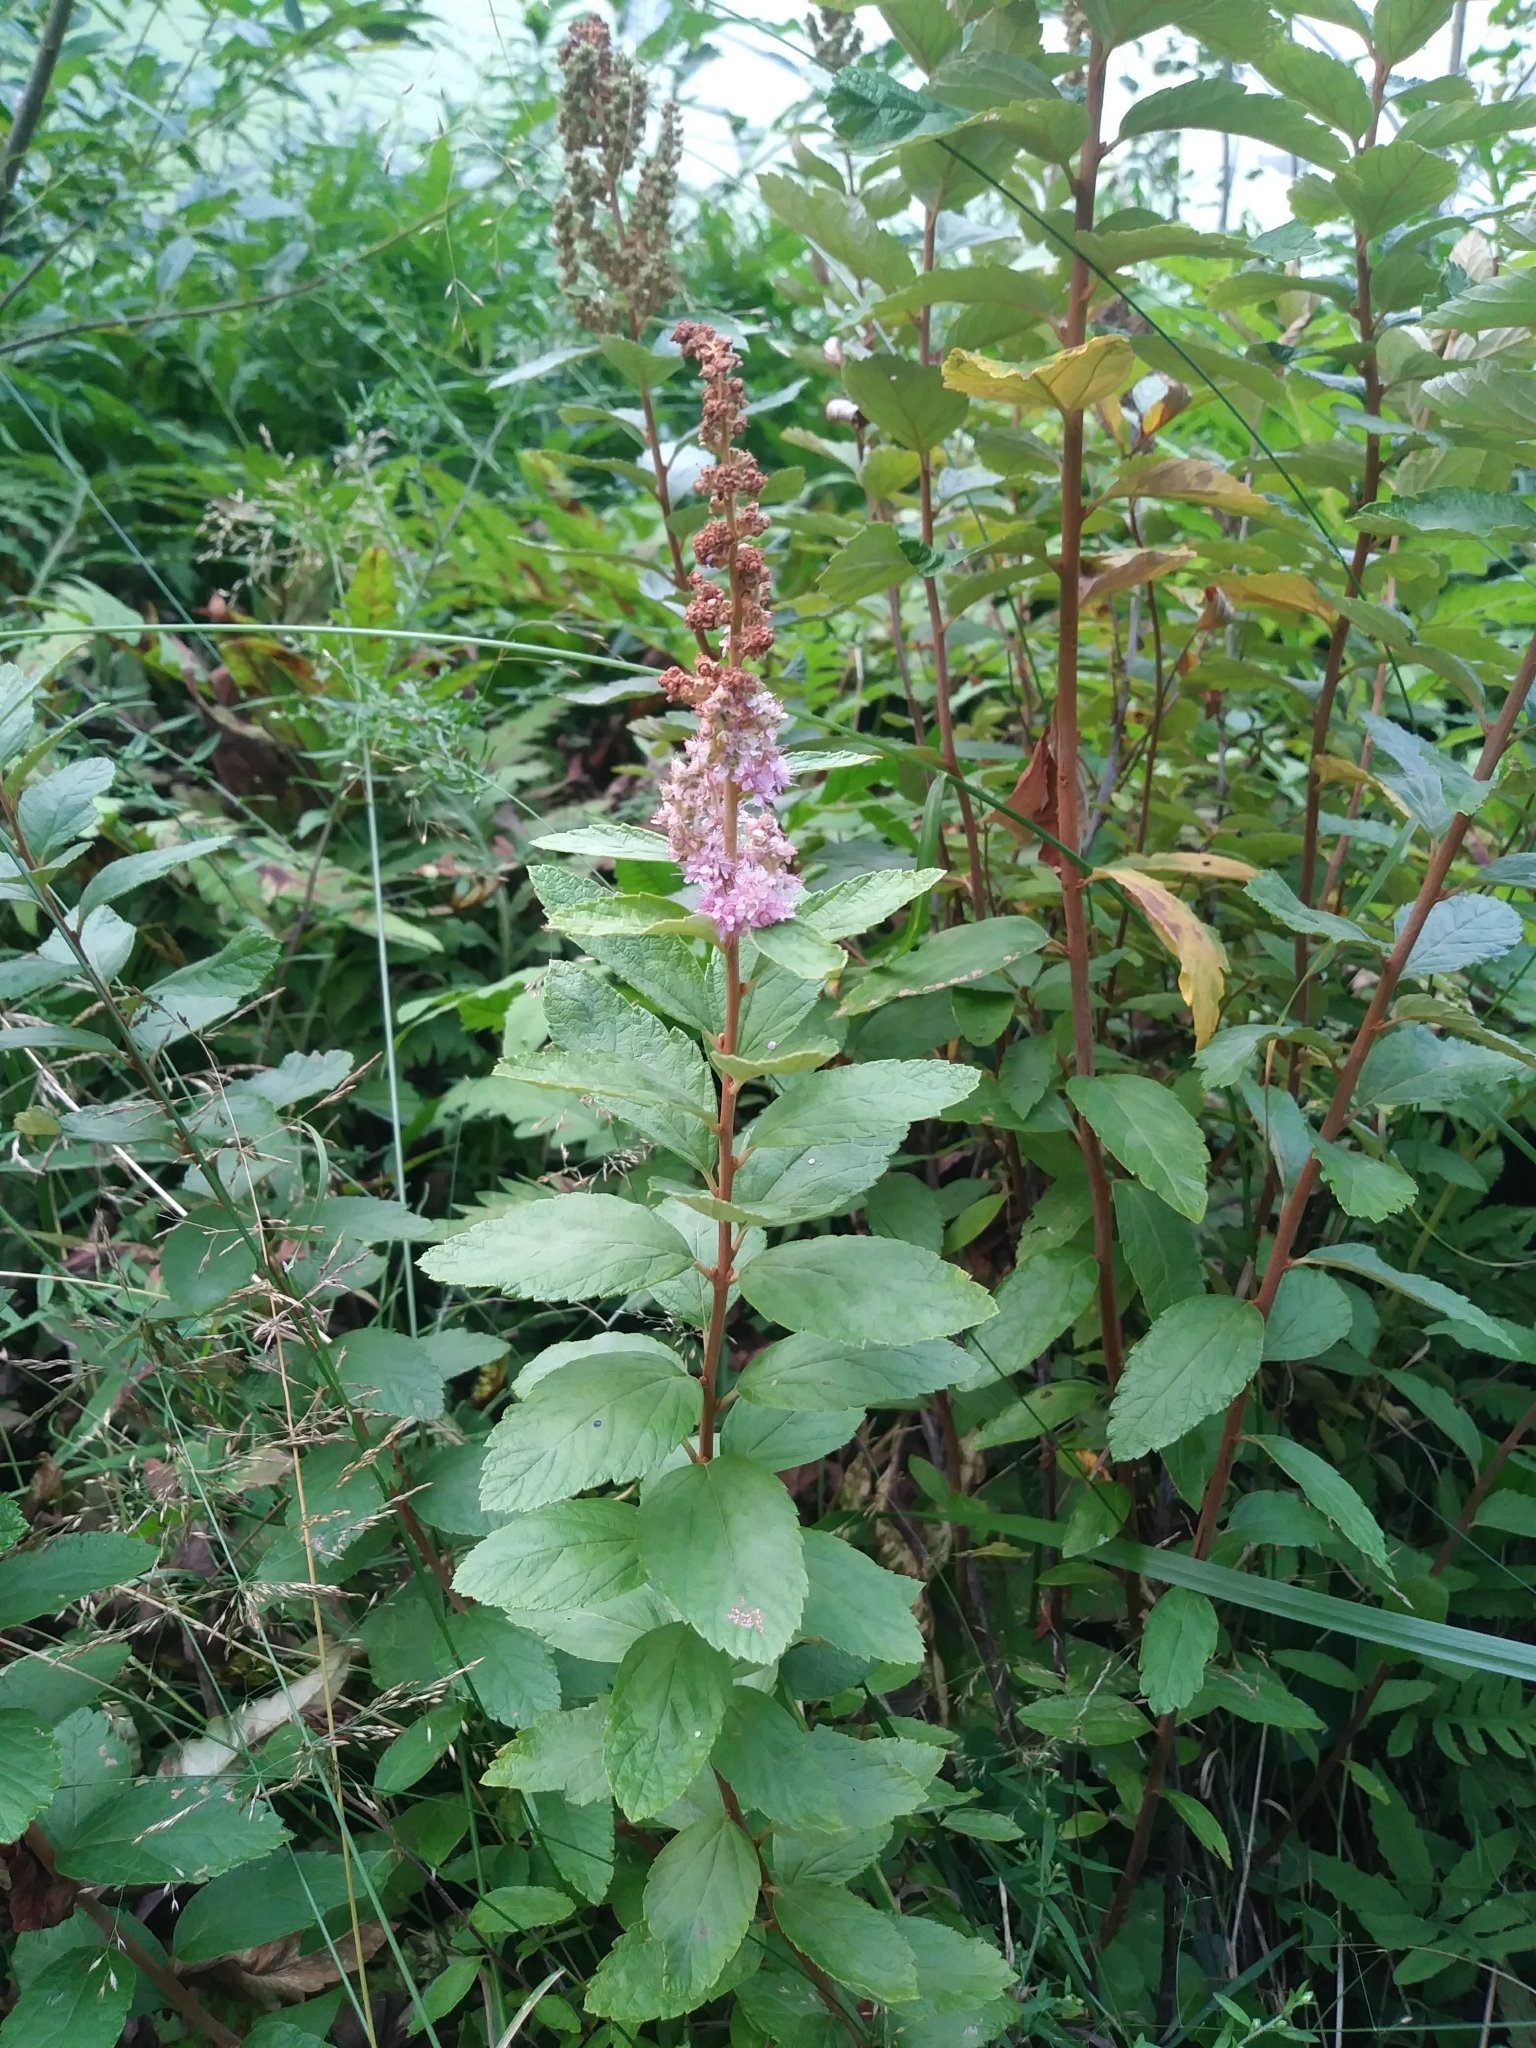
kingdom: Plantae
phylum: Tracheophyta
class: Magnoliopsida
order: Rosales
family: Rosaceae
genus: Spiraea
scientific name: Spiraea tomentosa
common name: Hardhack
